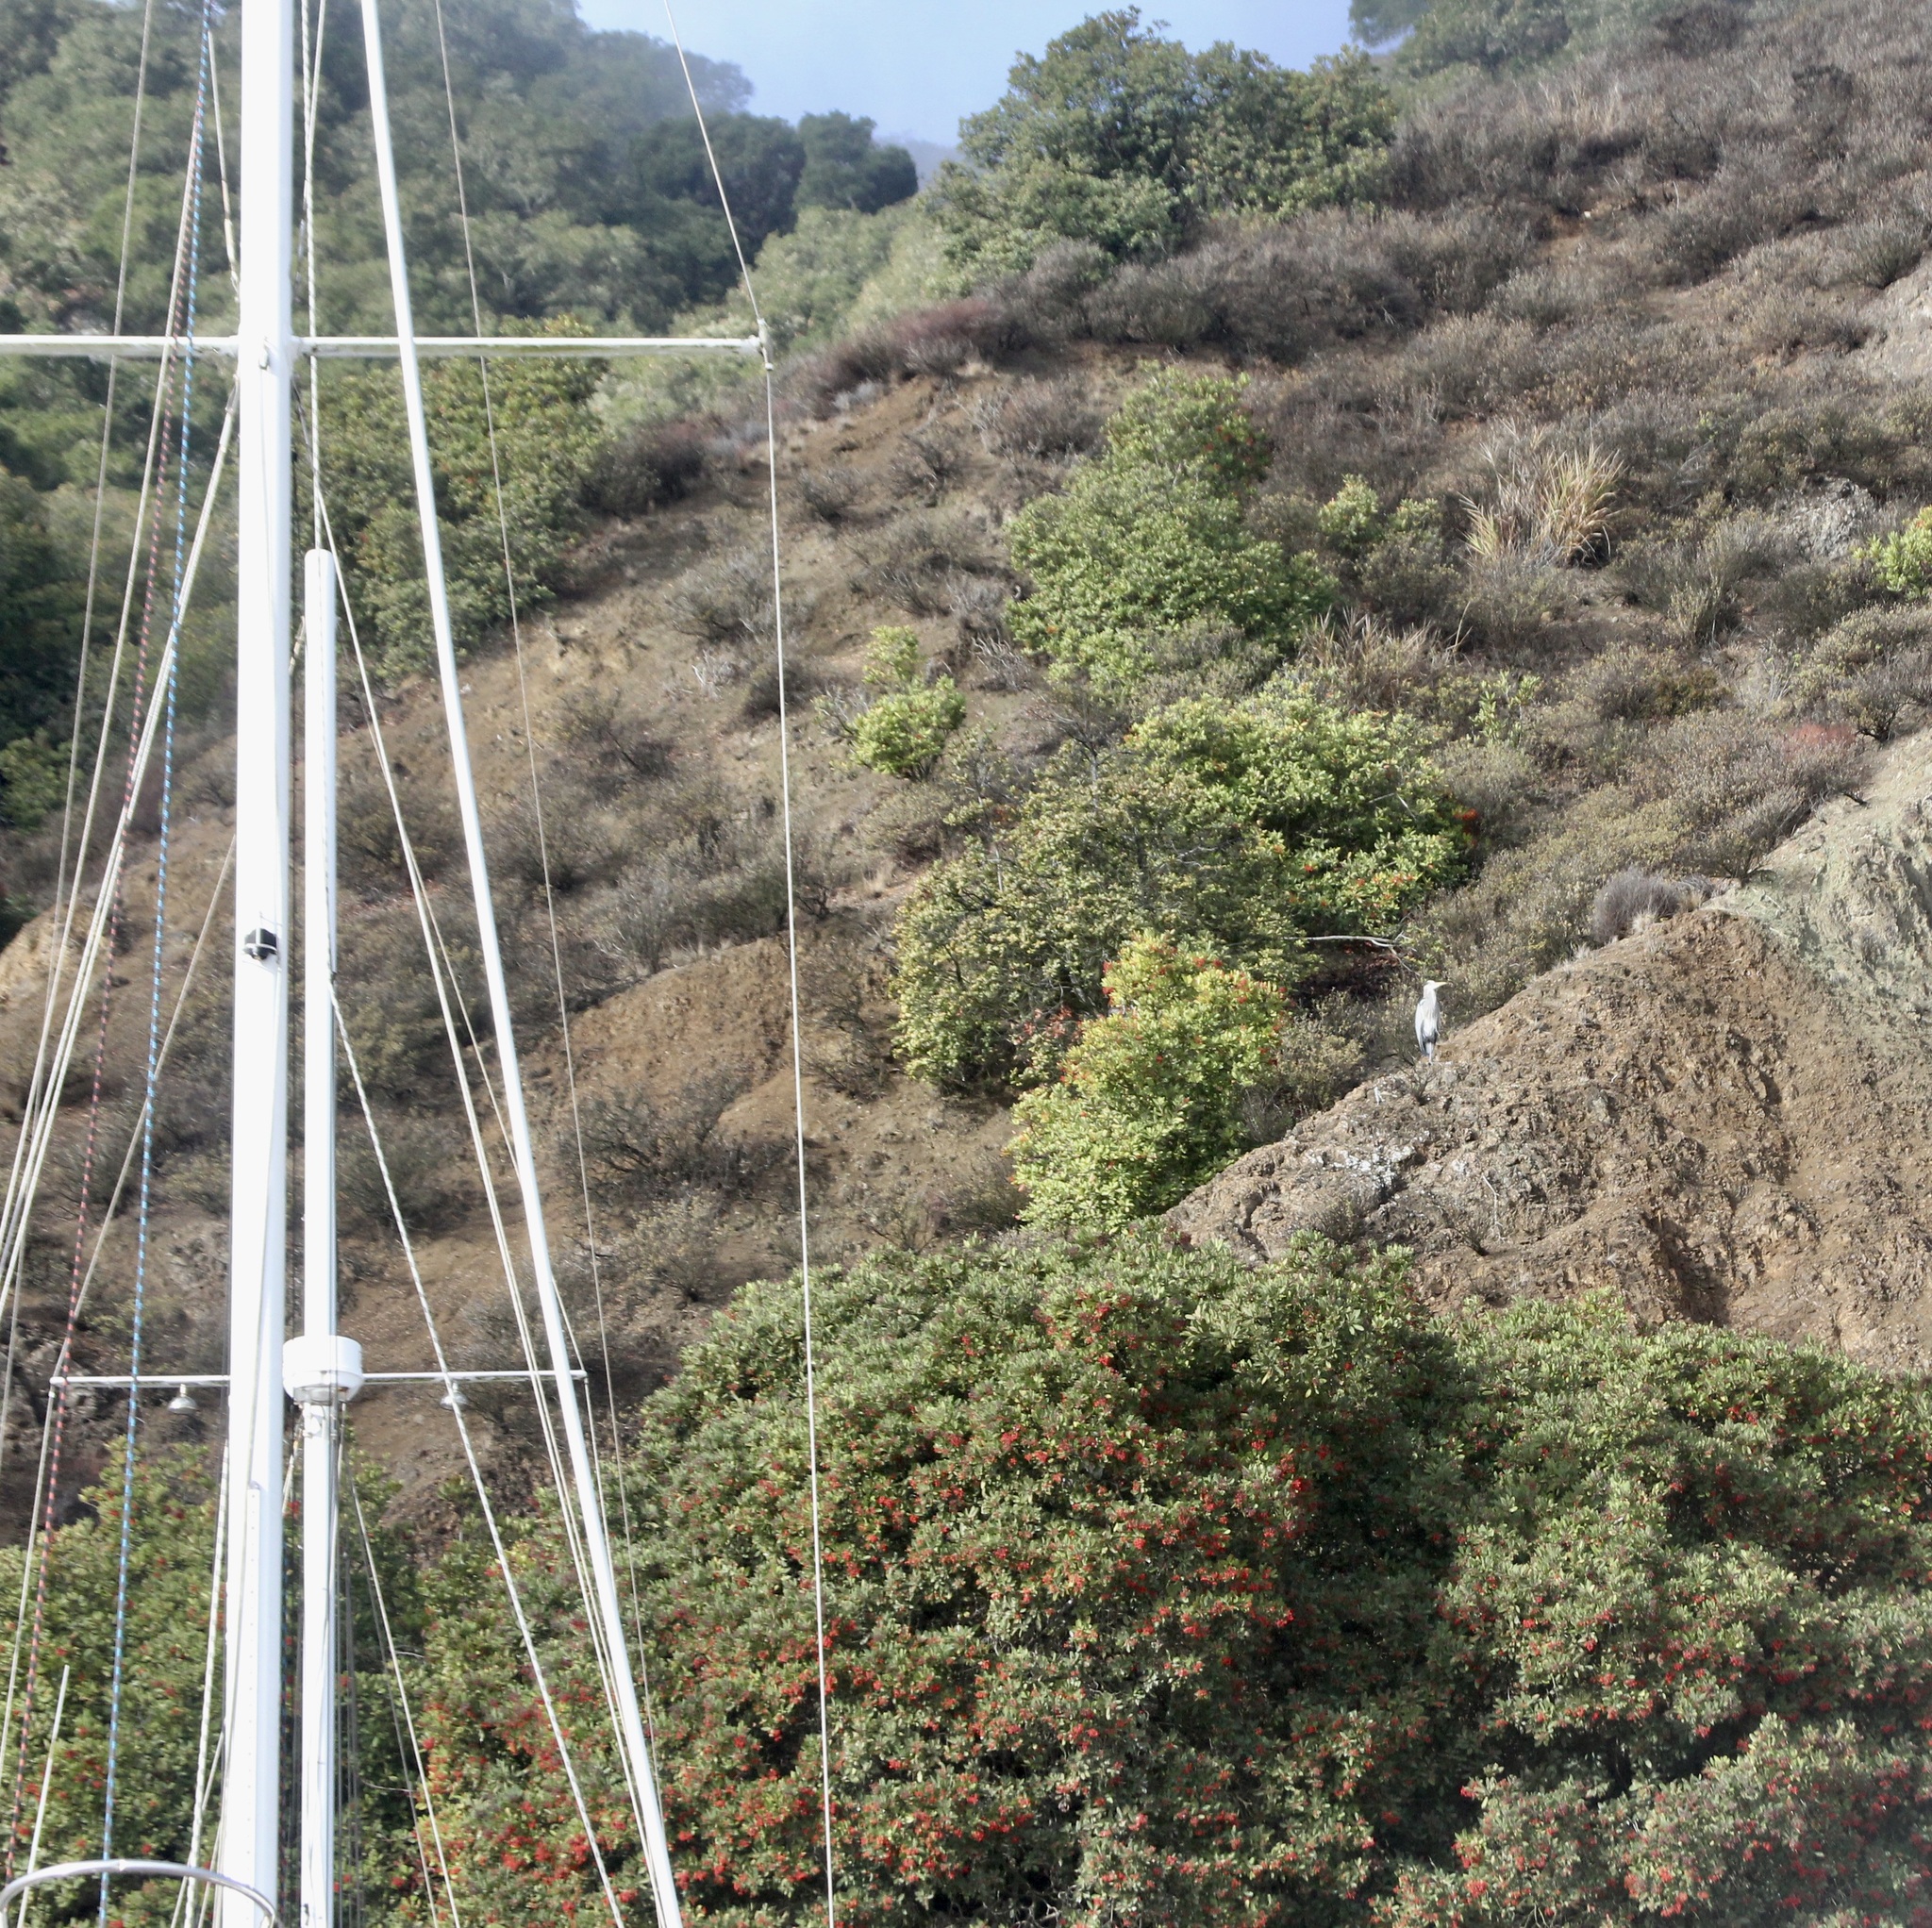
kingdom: Animalia
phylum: Chordata
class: Aves
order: Pelecaniformes
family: Ardeidae
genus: Ardea
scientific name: Ardea herodias
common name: Great blue heron
